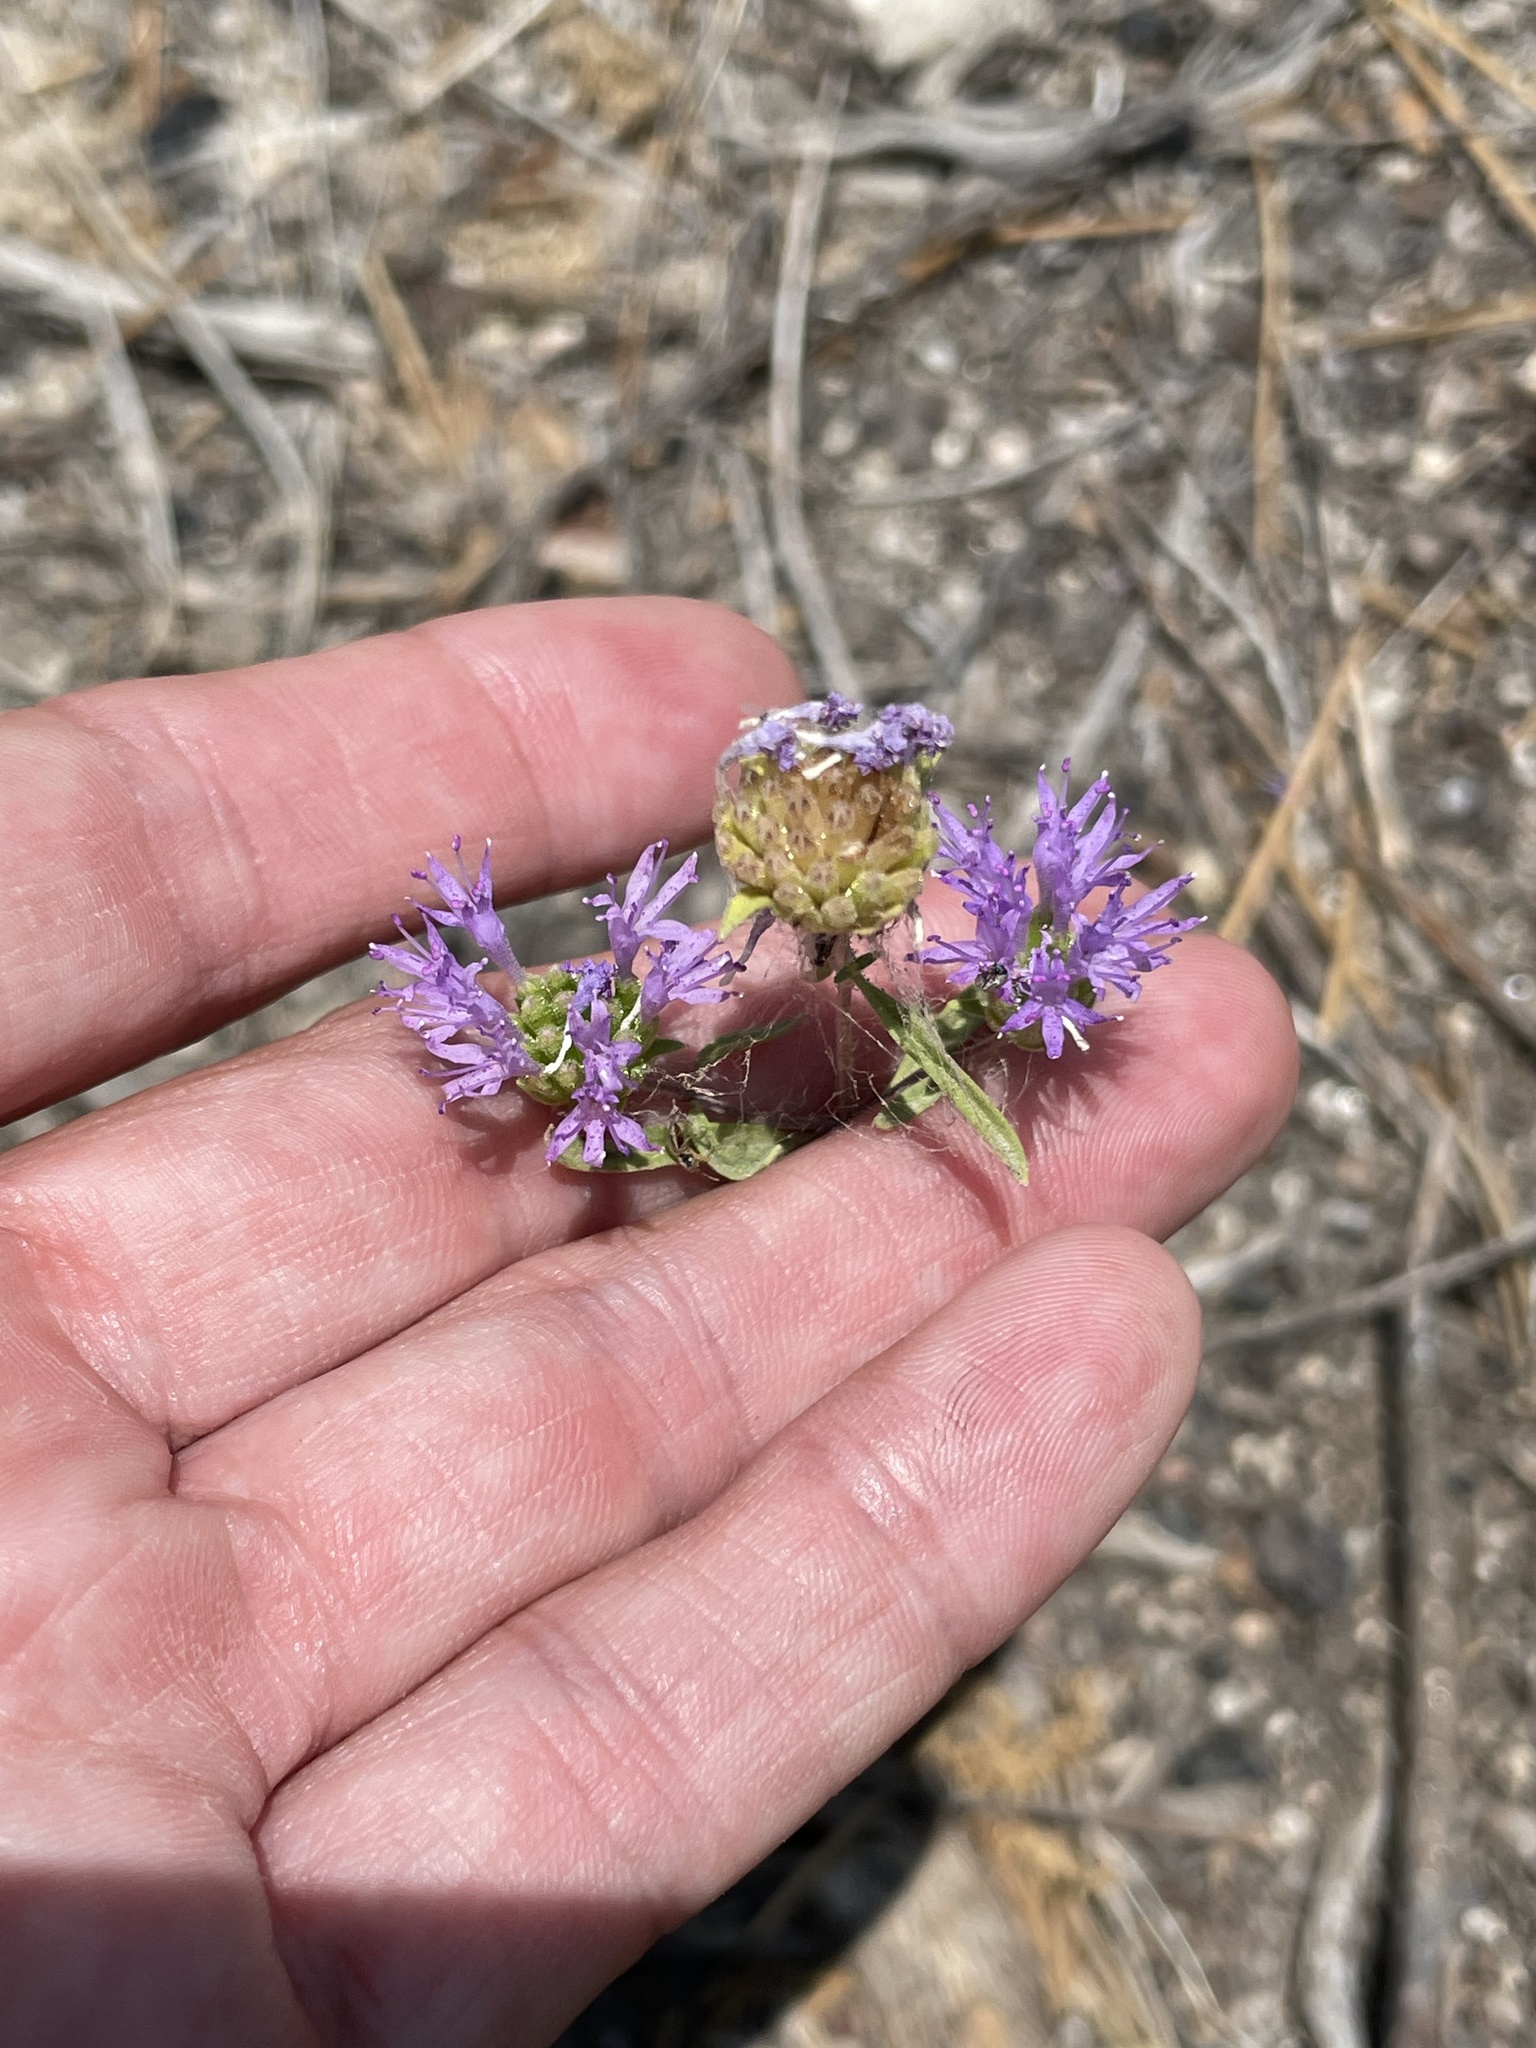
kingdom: Plantae
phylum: Tracheophyta
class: Magnoliopsida
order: Lamiales
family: Lamiaceae
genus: Monardella
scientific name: Monardella breweri
